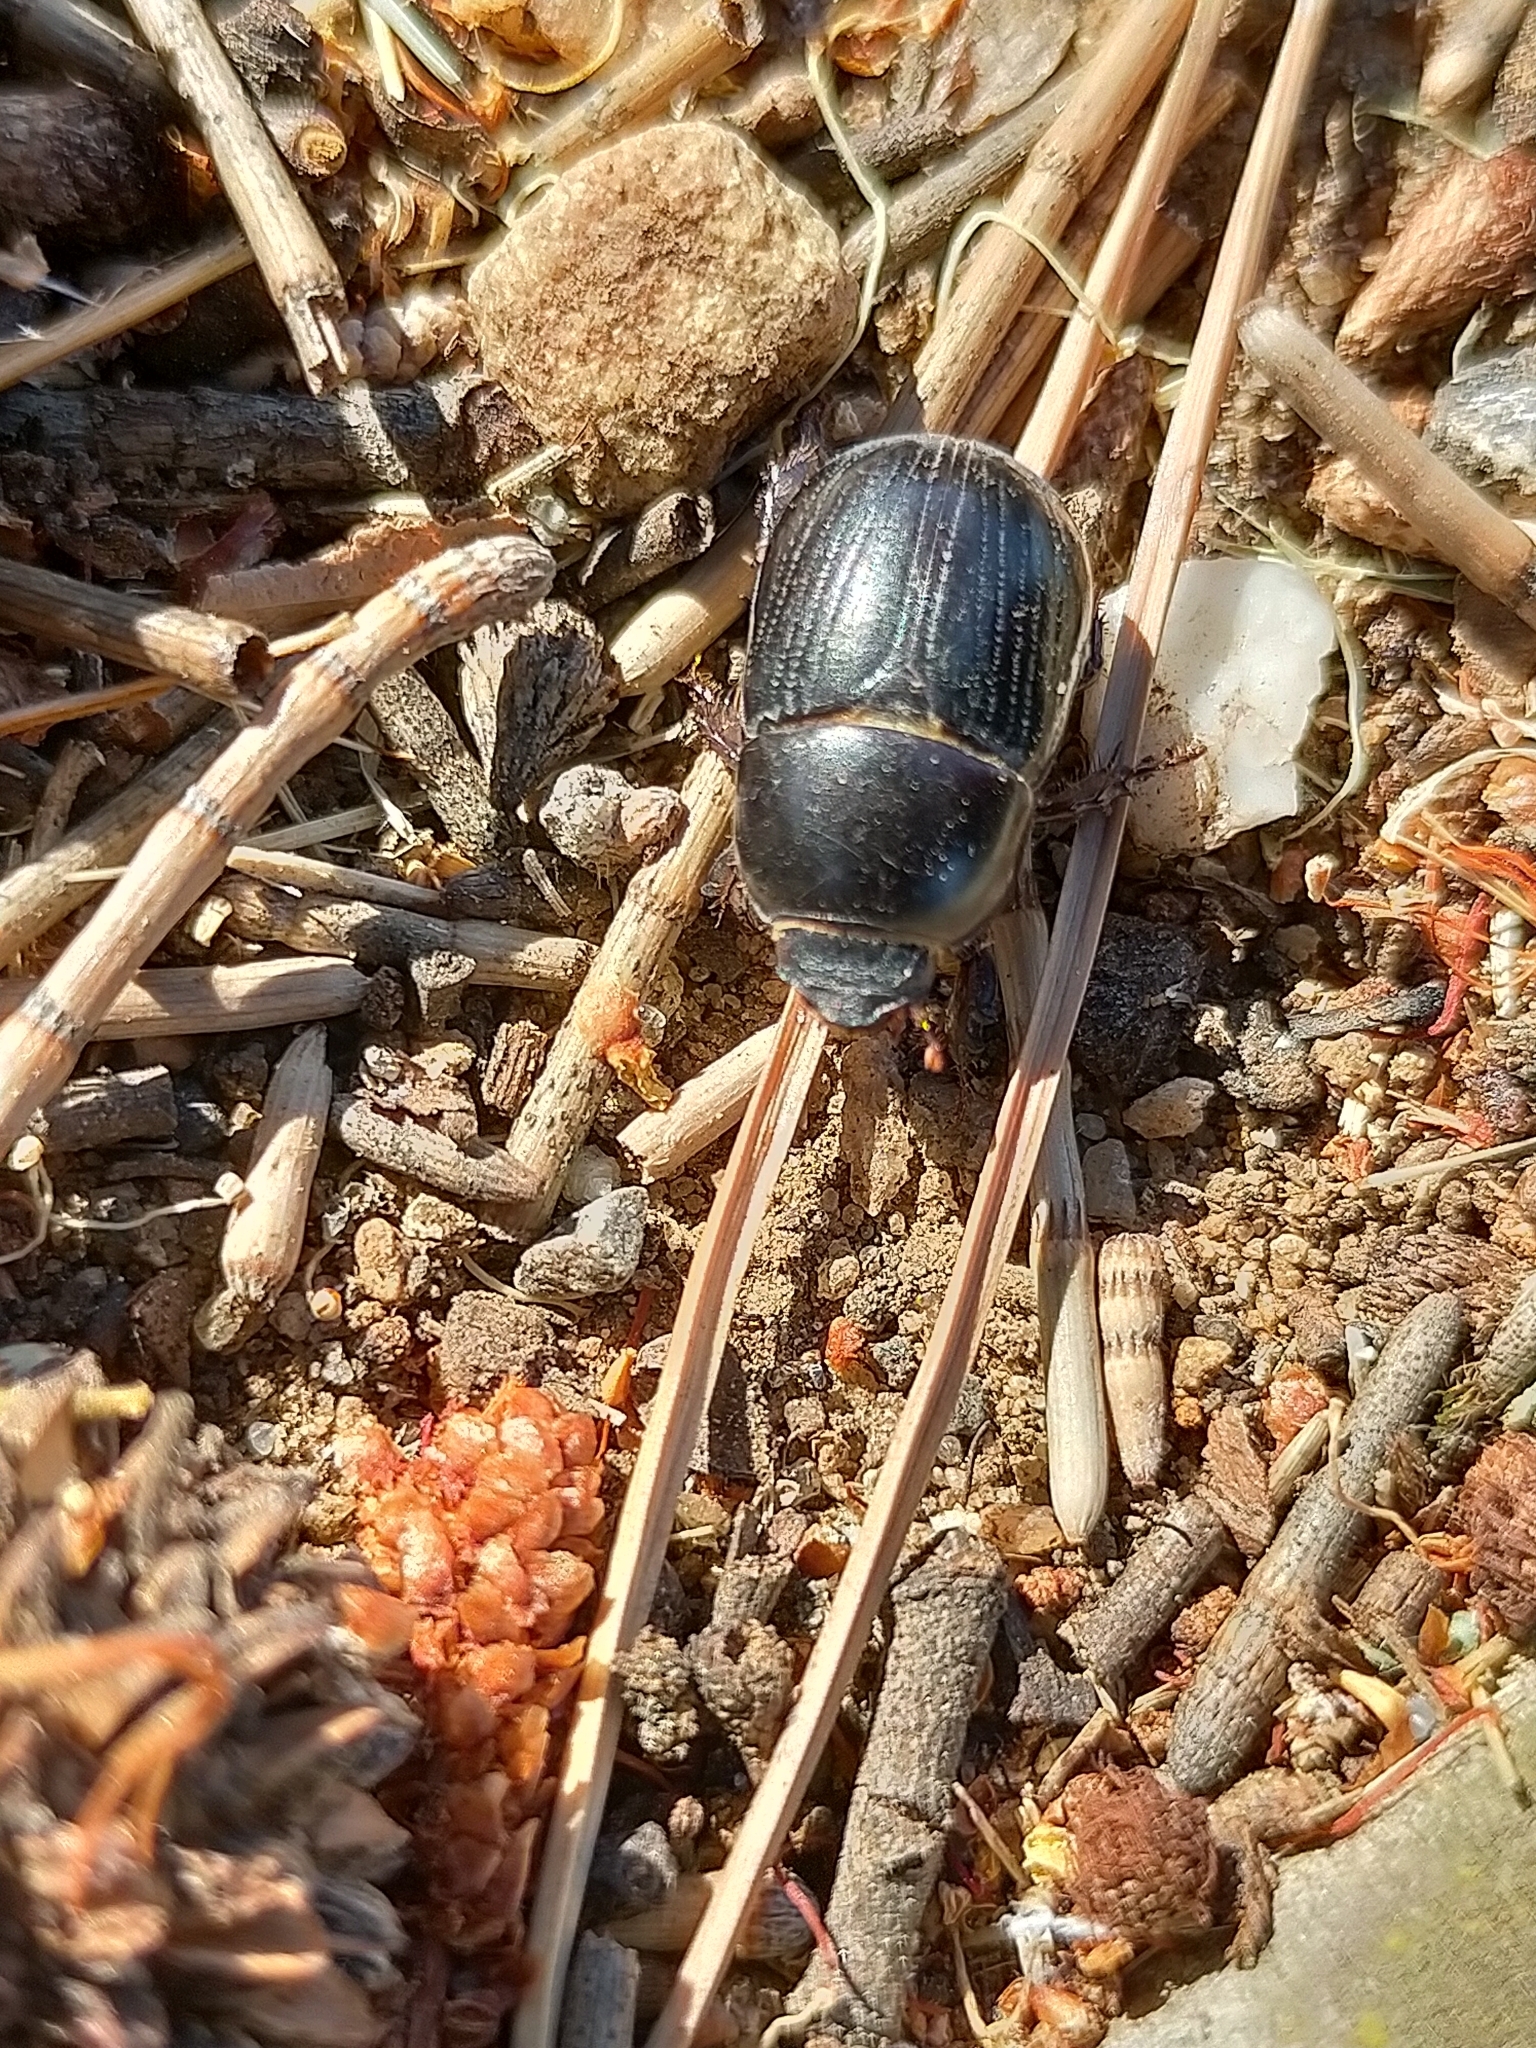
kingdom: Animalia
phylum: Arthropoda
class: Insecta
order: Coleoptera
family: Scarabaeidae
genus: Heteronychus
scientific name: Heteronychus arator
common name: African black beetle
